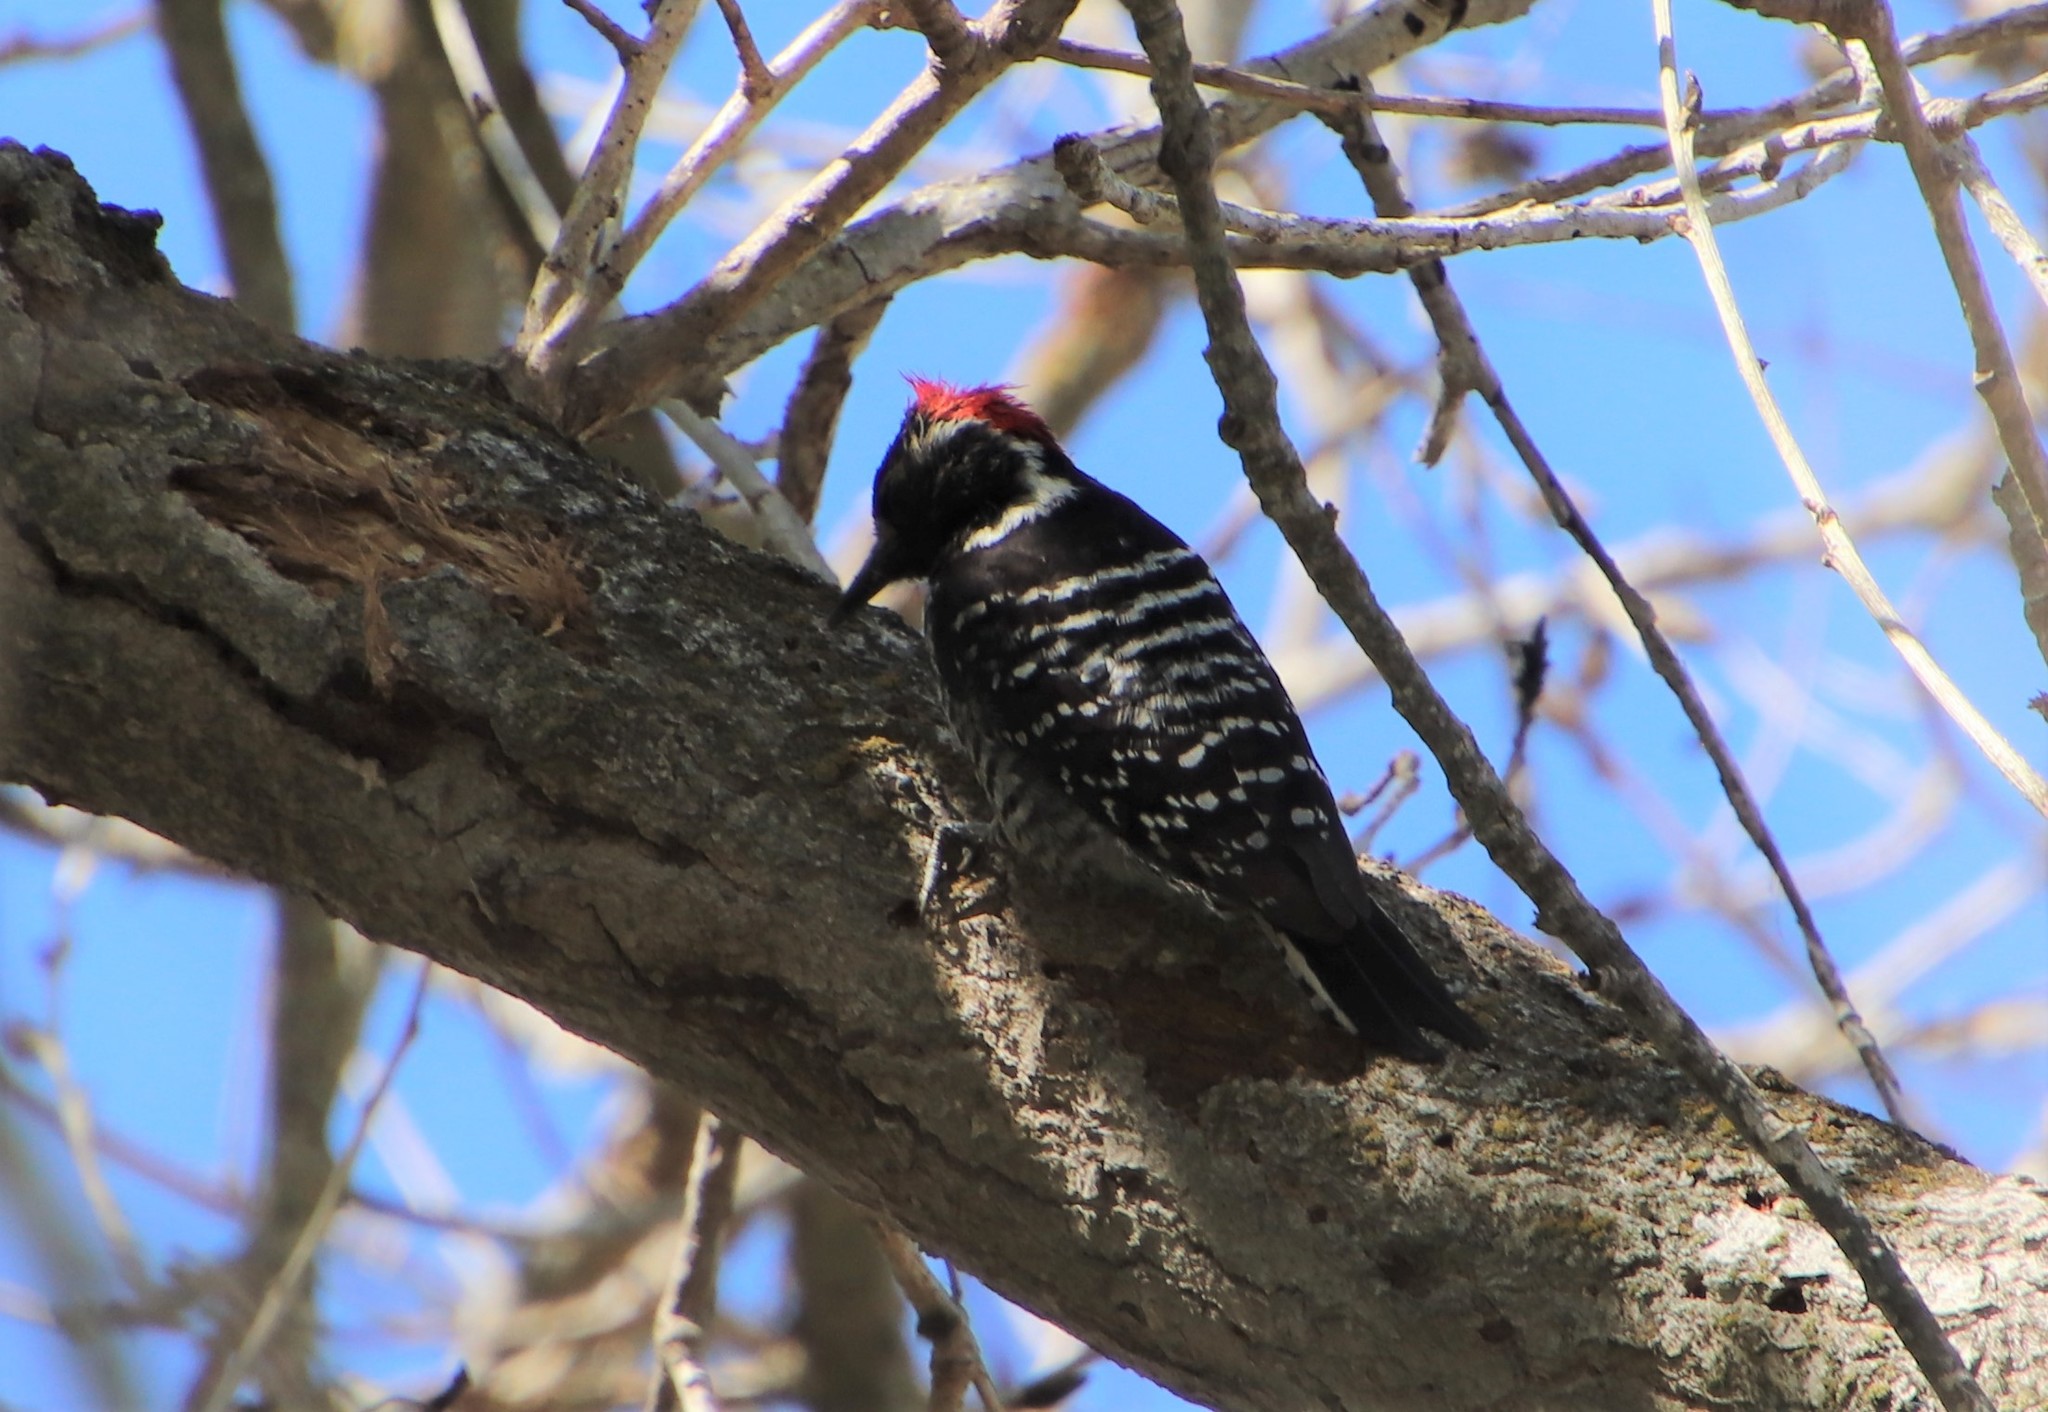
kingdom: Animalia
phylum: Chordata
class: Aves
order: Piciformes
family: Picidae
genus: Dryobates
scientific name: Dryobates nuttallii
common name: Nuttall's woodpecker
